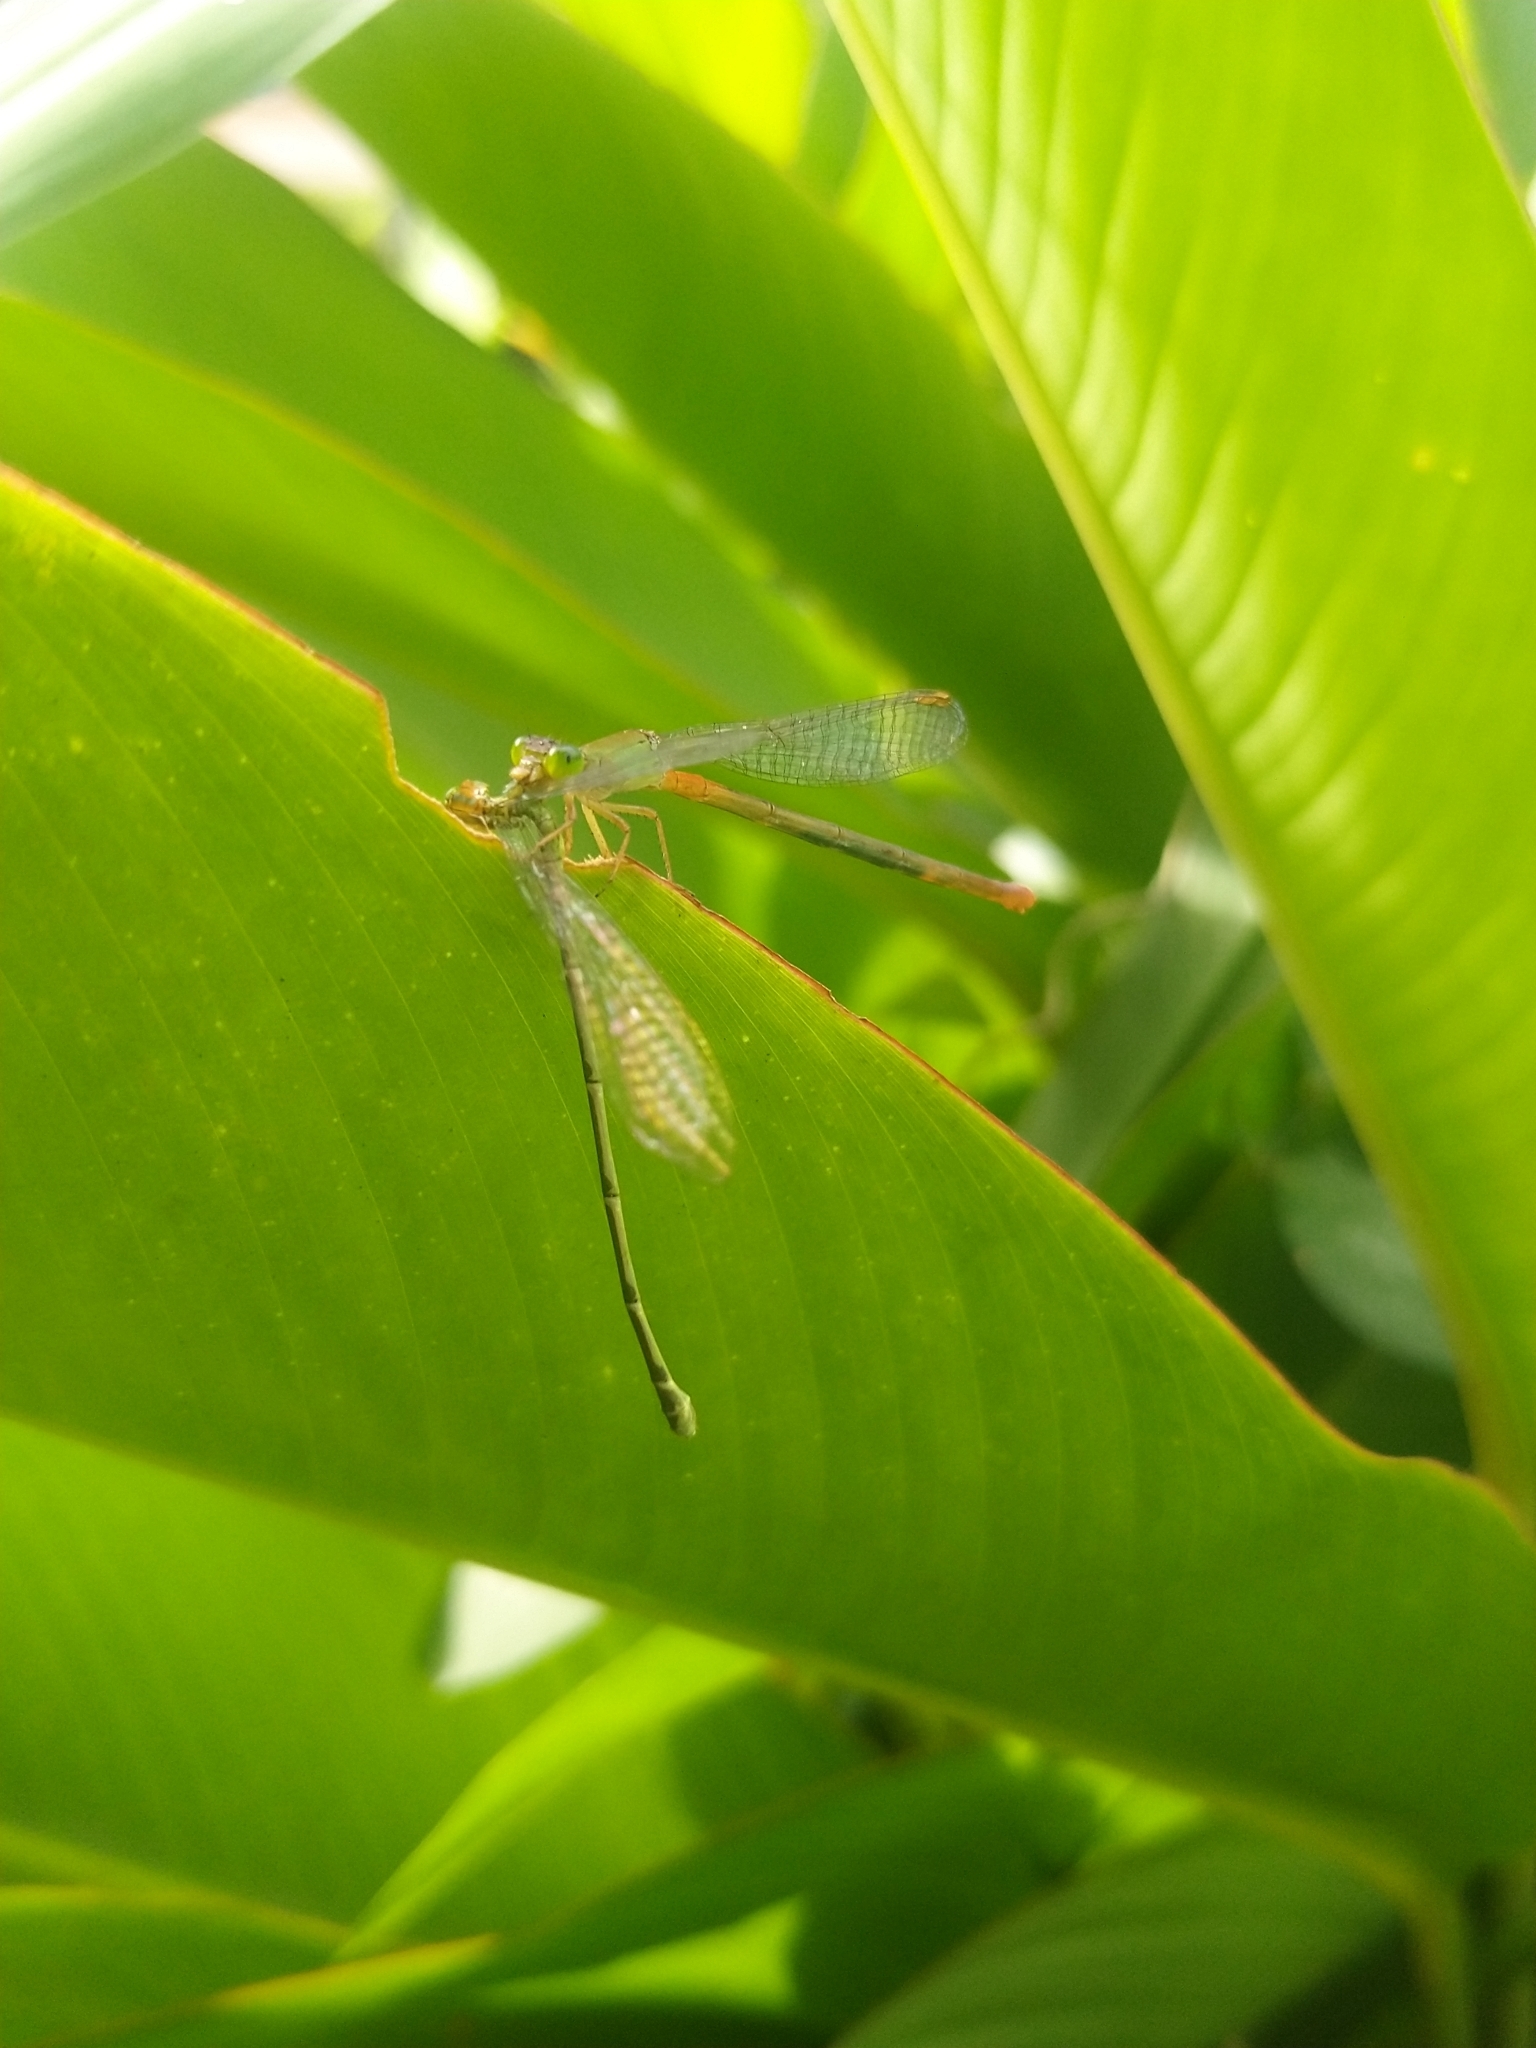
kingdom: Animalia
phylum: Arthropoda
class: Insecta
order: Odonata
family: Coenagrionidae
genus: Ceriagrion
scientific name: Ceriagrion cerinorubellum
